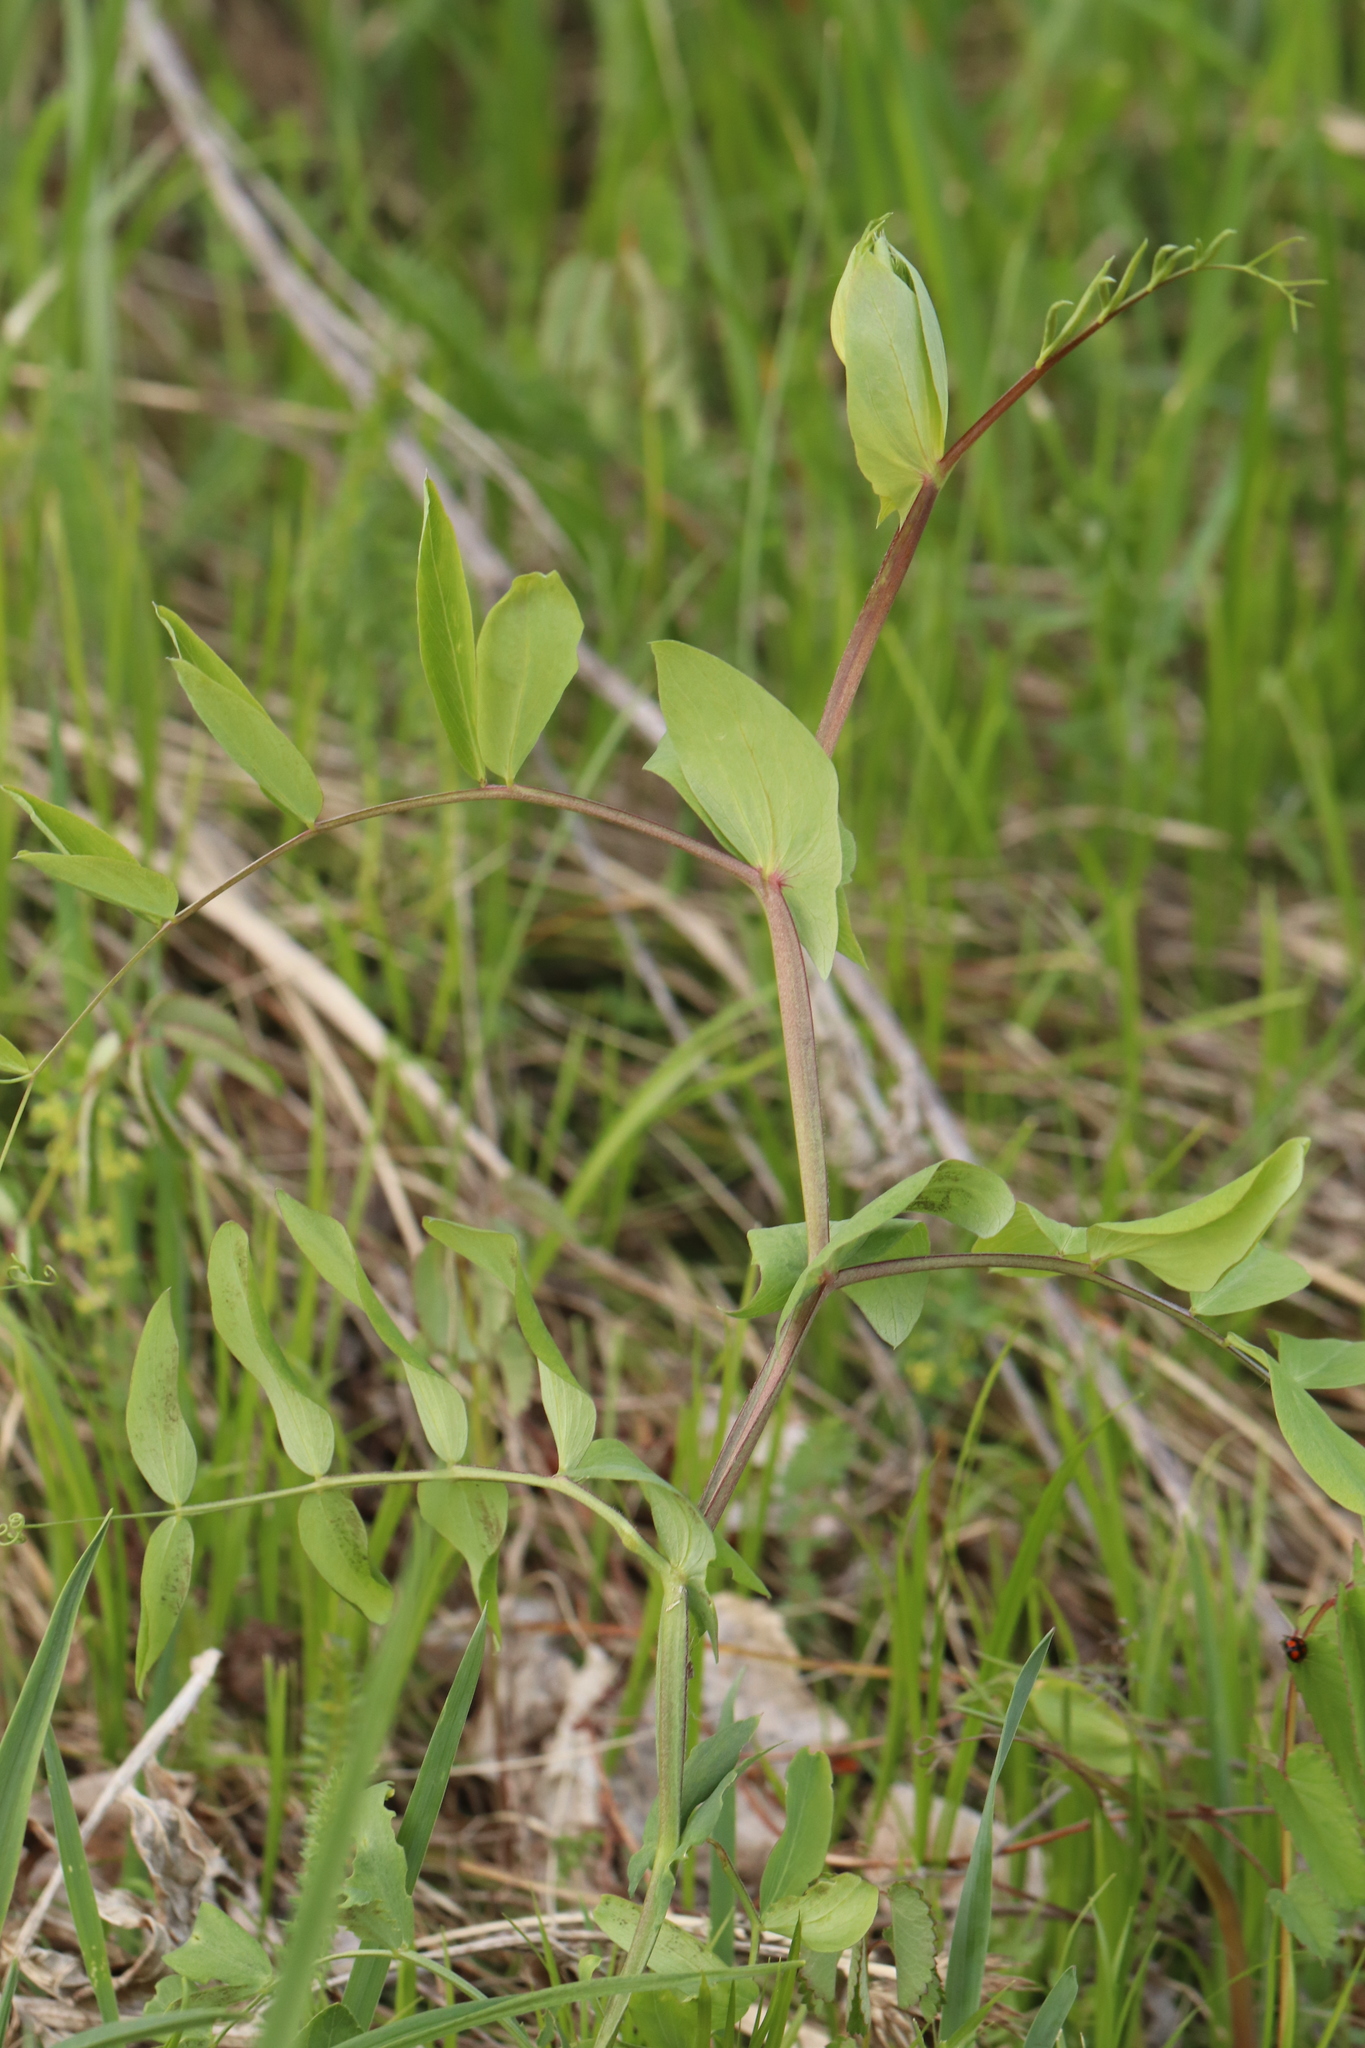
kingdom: Plantae
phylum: Tracheophyta
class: Magnoliopsida
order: Fabales
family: Fabaceae
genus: Lathyrus
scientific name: Lathyrus pisiformis
